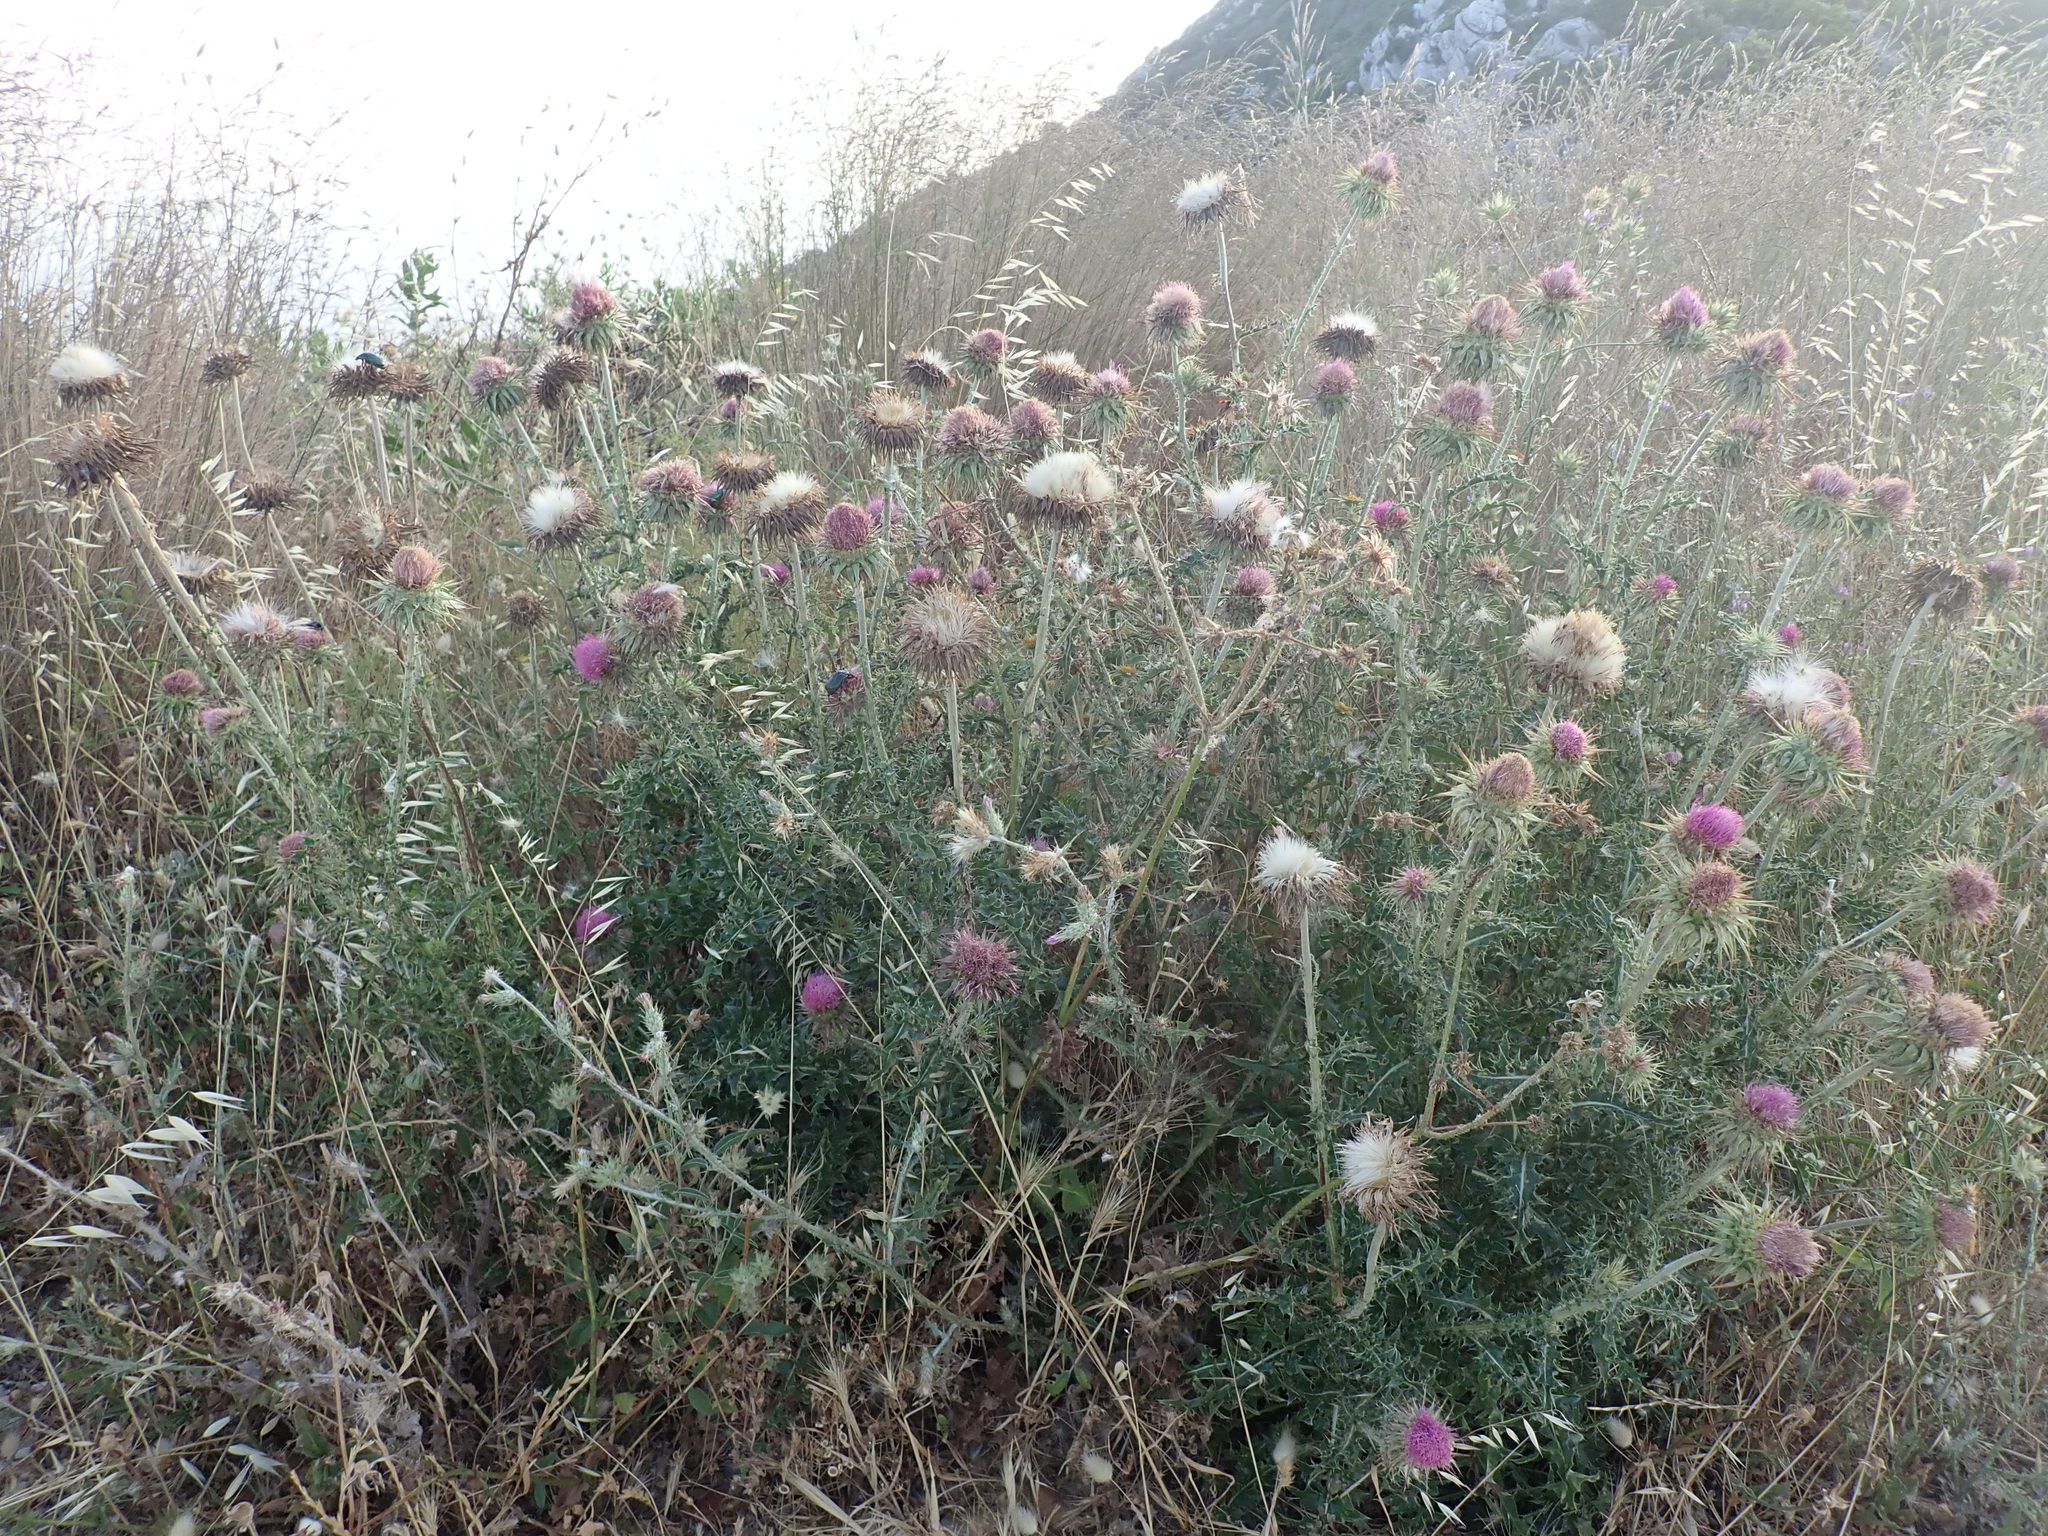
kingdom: Plantae
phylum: Tracheophyta
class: Magnoliopsida
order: Asterales
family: Asteraceae
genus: Carduus
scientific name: Carduus nutans
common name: Musk thistle
